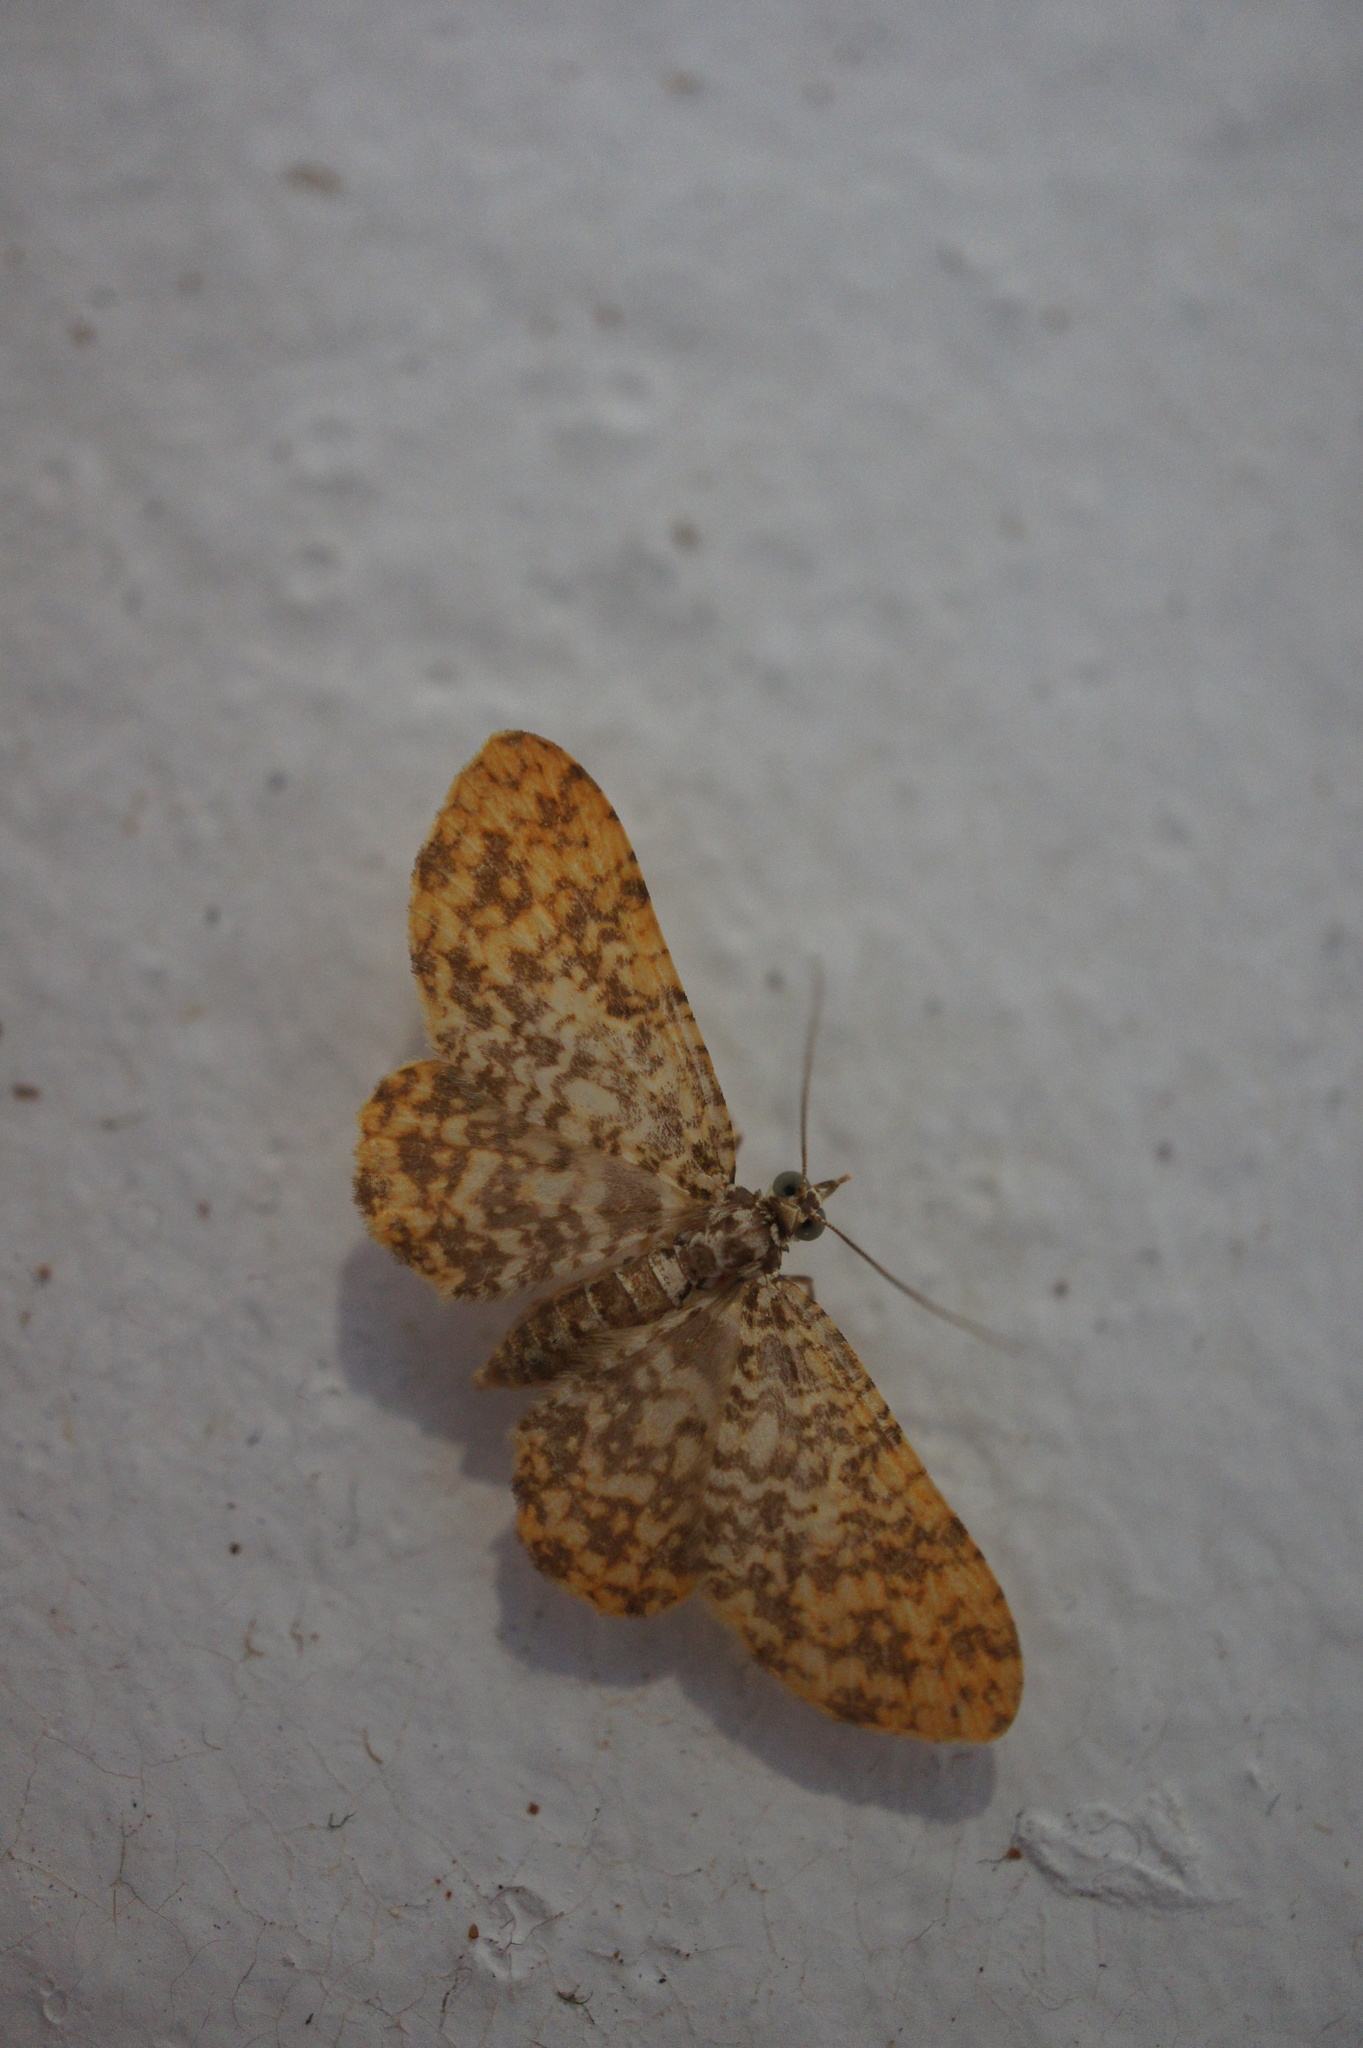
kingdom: Animalia
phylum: Arthropoda
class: Insecta
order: Lepidoptera
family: Geometridae
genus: Pomasia
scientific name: Pomasia salutaris
